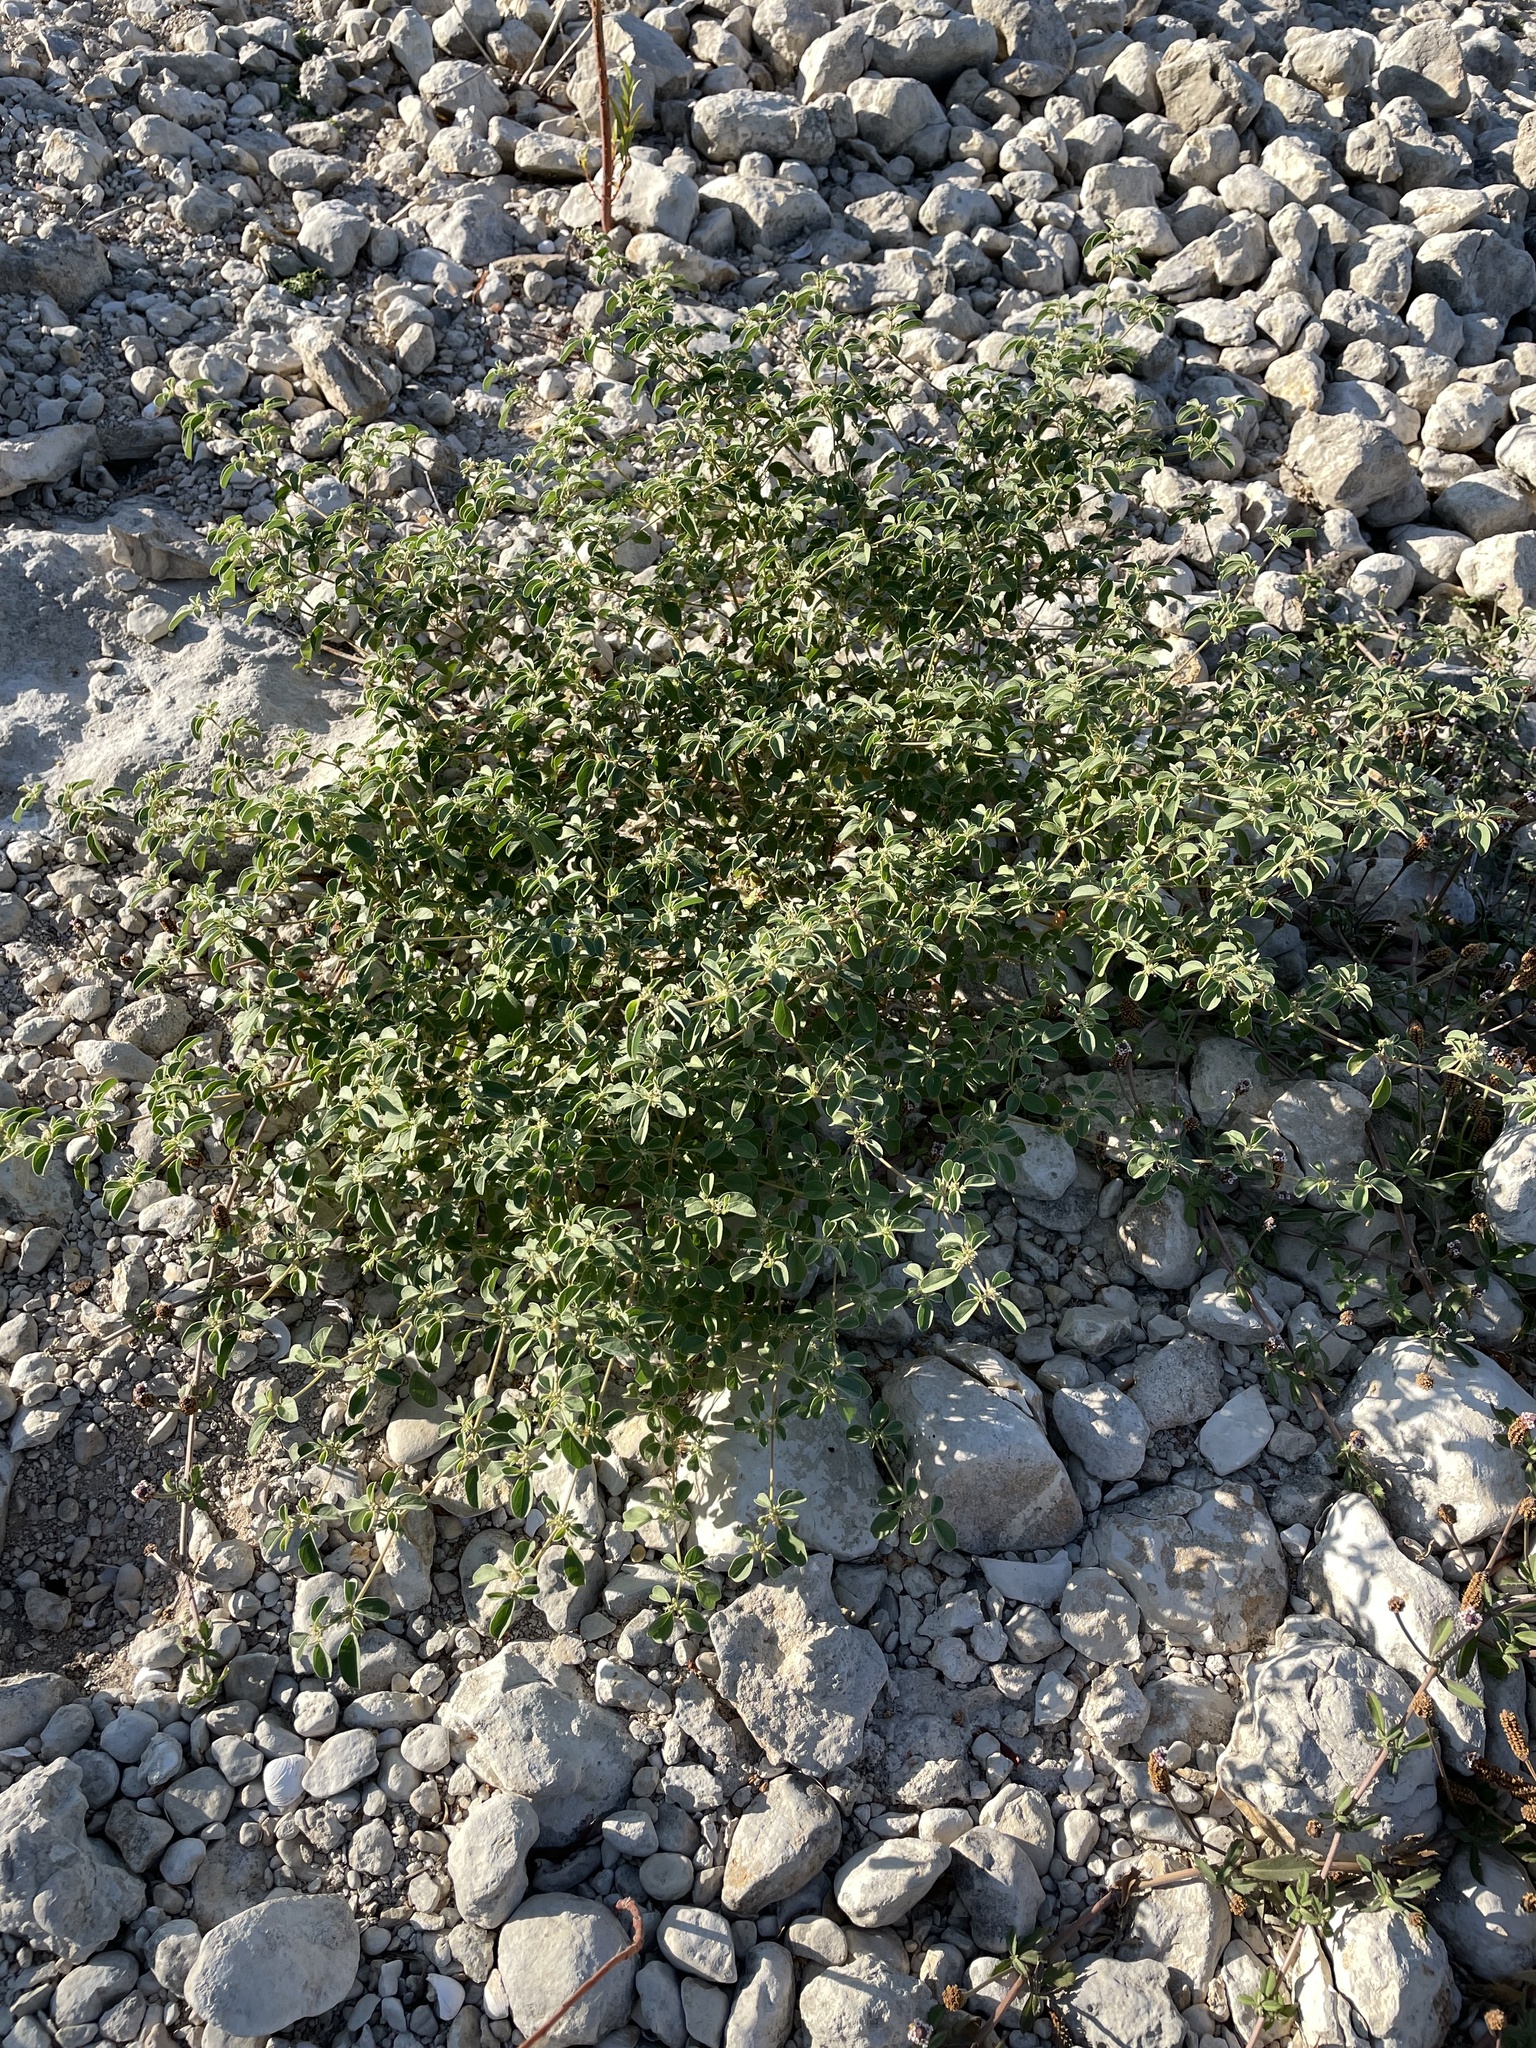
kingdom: Plantae
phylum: Tracheophyta
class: Magnoliopsida
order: Malpighiales
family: Euphorbiaceae
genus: Croton
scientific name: Croton monanthogynus
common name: One-seed croton
